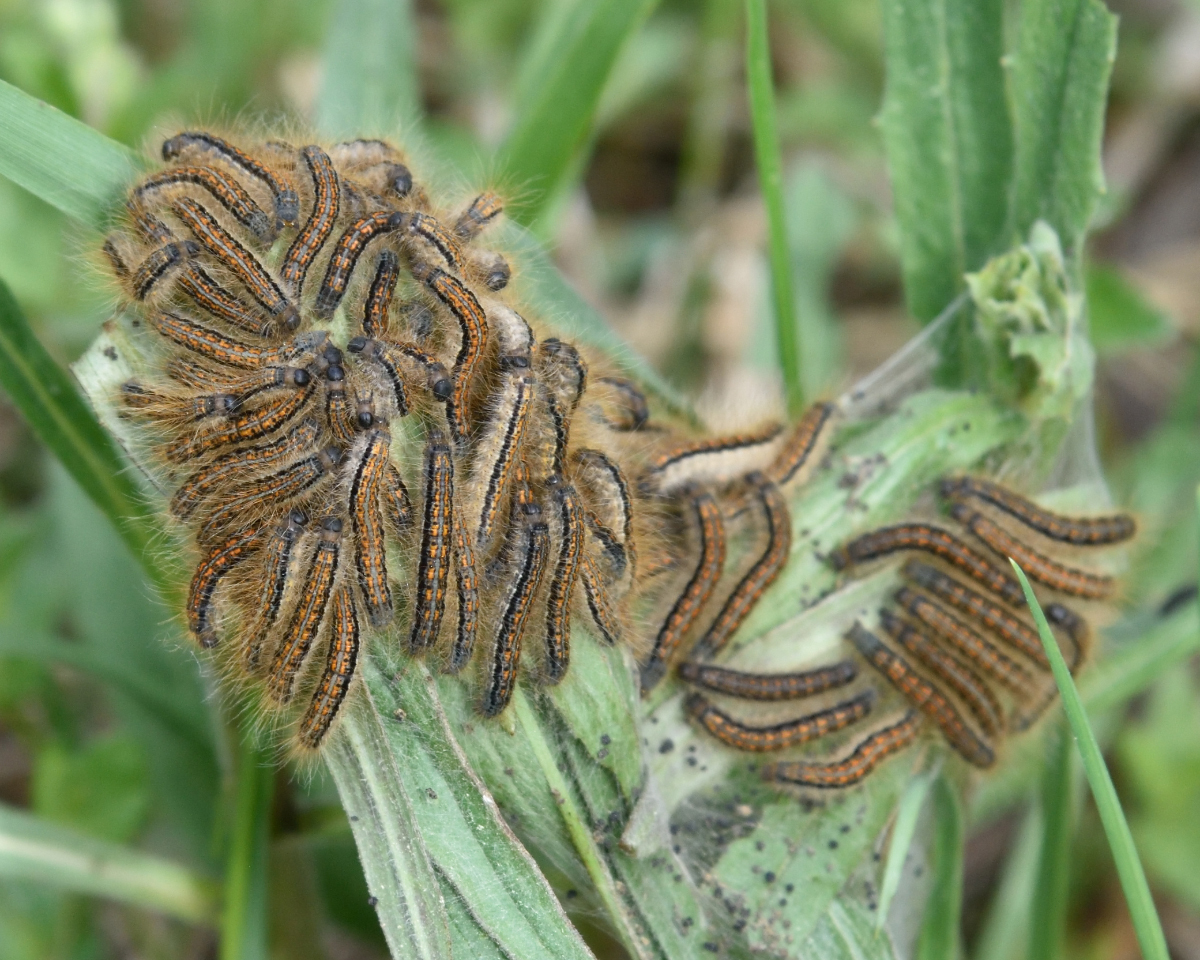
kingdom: Animalia
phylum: Arthropoda
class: Insecta
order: Lepidoptera
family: Lasiocampidae
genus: Malacosoma
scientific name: Malacosoma castrense
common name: Ground lackey
